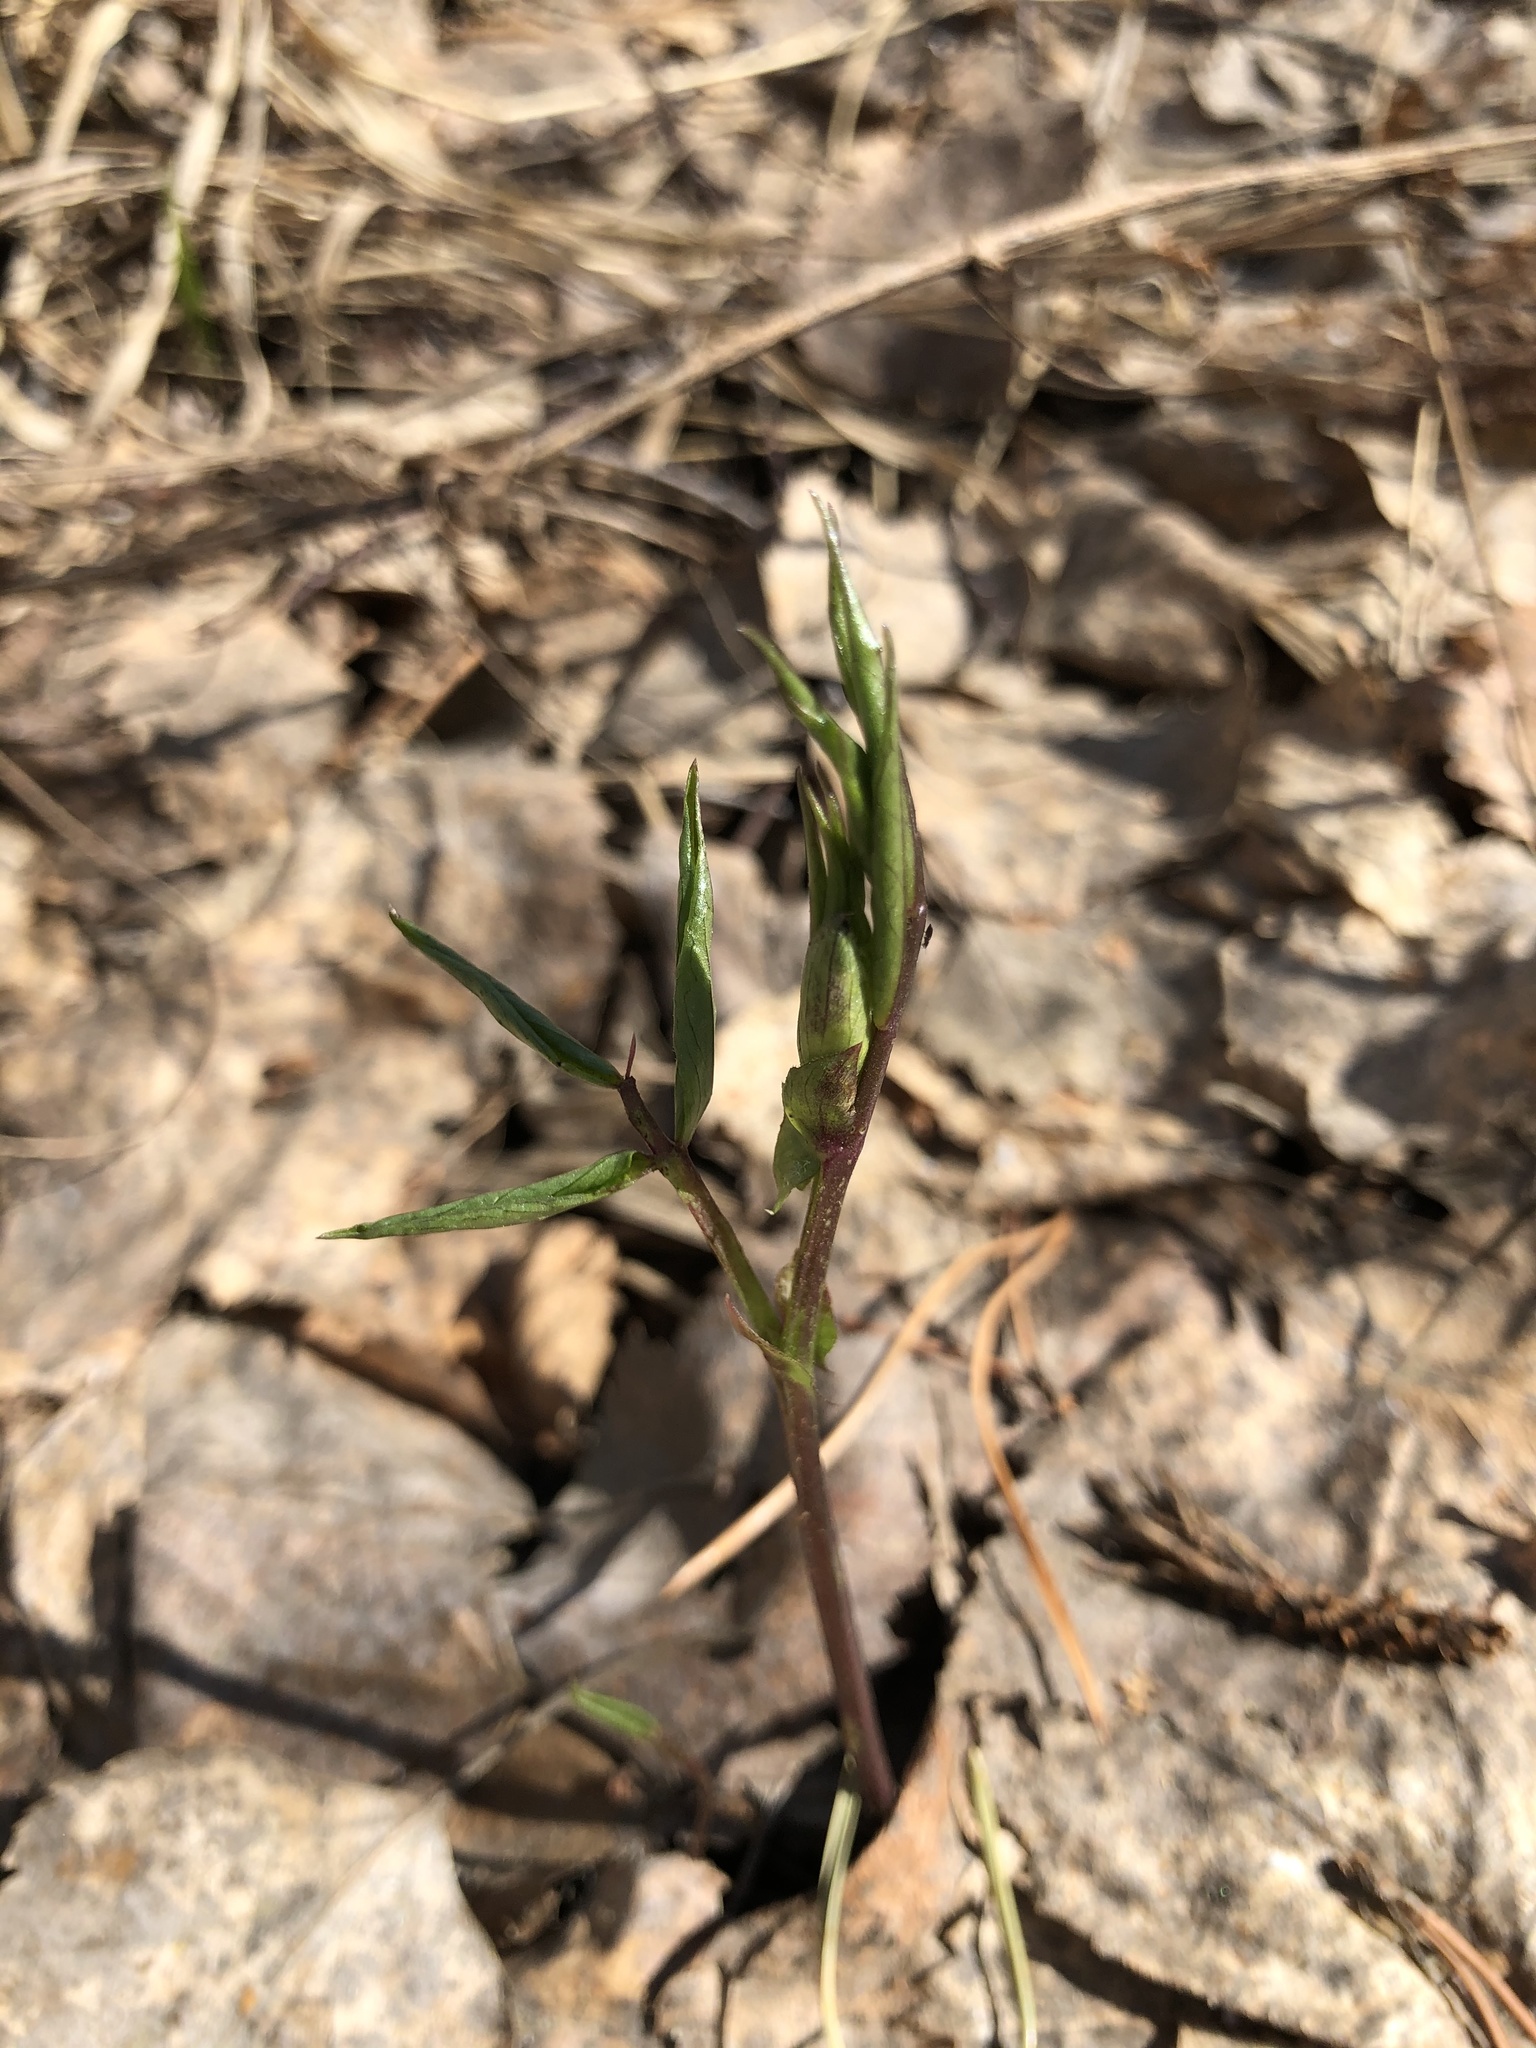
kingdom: Plantae
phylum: Tracheophyta
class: Magnoliopsida
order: Fabales
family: Fabaceae
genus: Lathyrus
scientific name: Lathyrus vernus
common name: Spring pea
